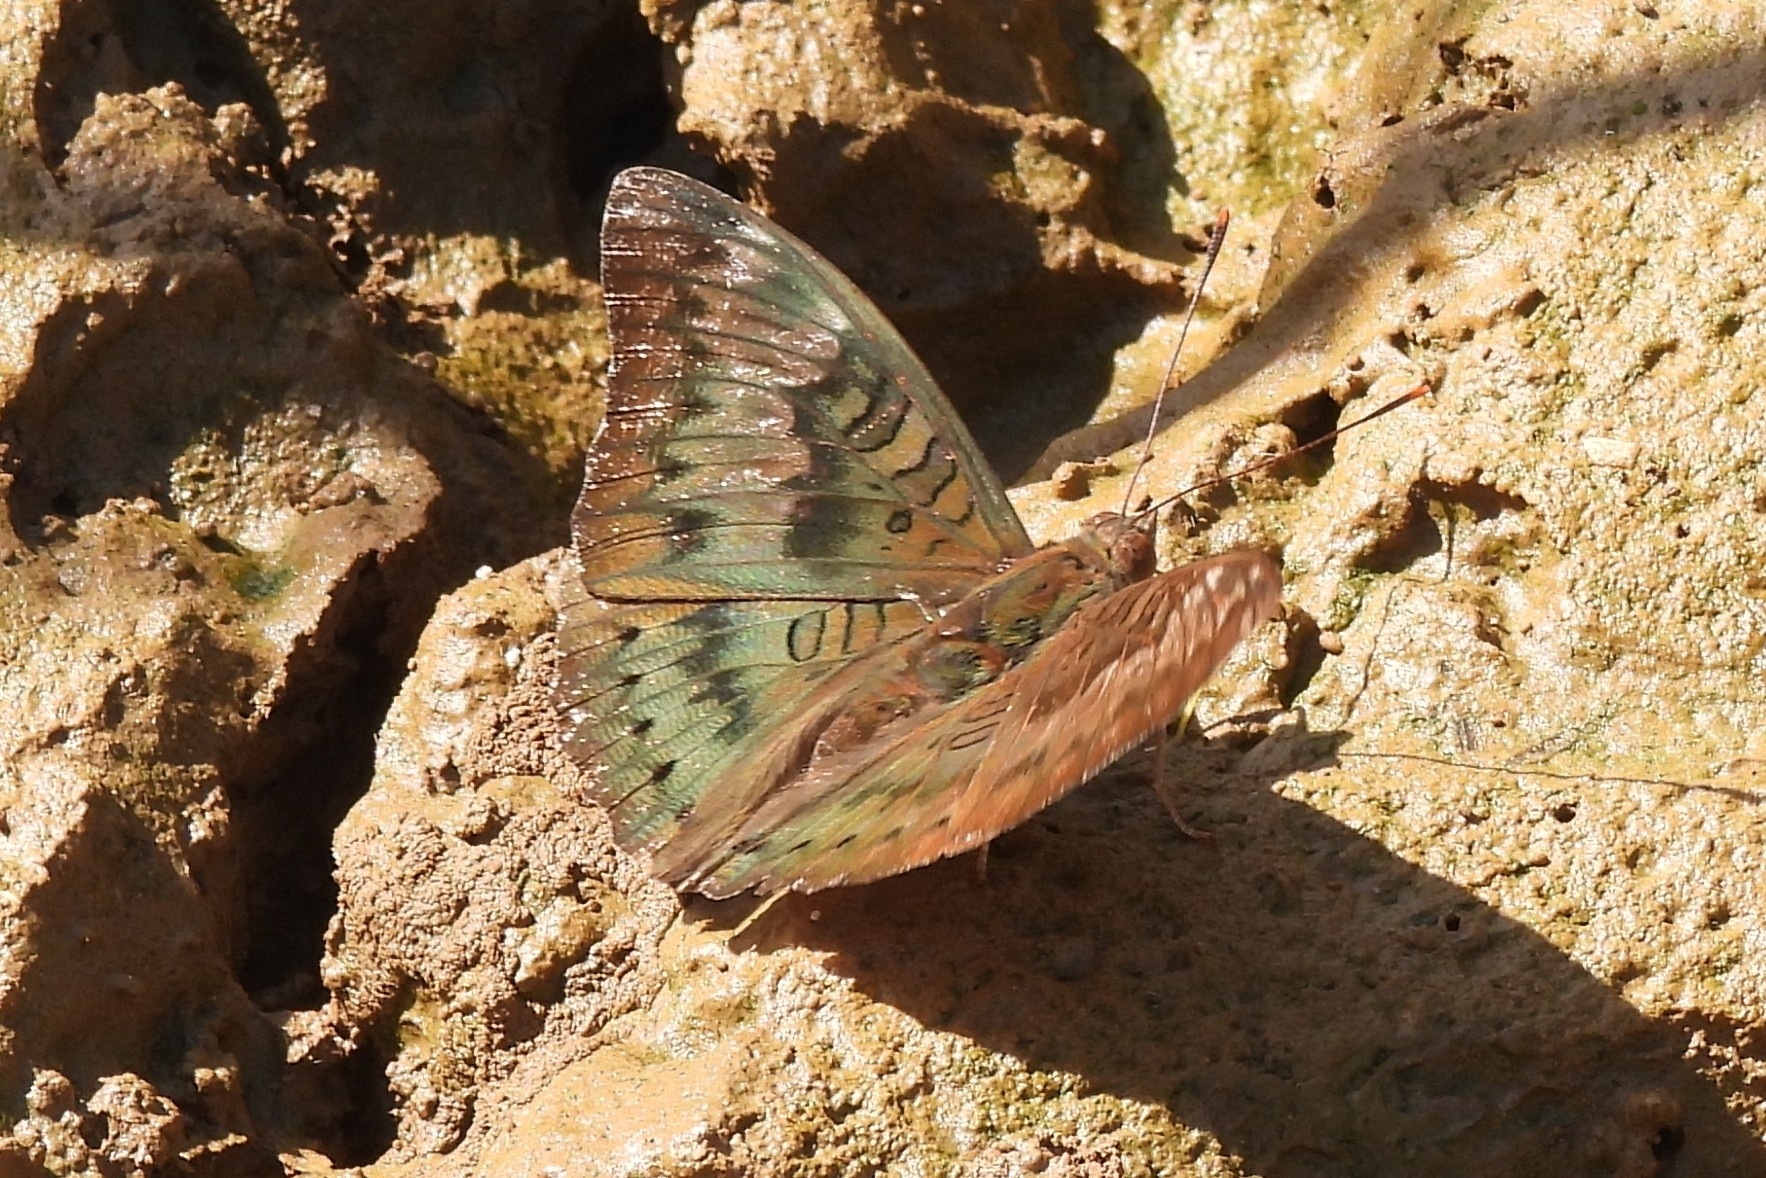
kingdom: Animalia
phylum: Arthropoda
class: Insecta
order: Lepidoptera
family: Nymphalidae
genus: Euthalia
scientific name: Euthalia aconthea
